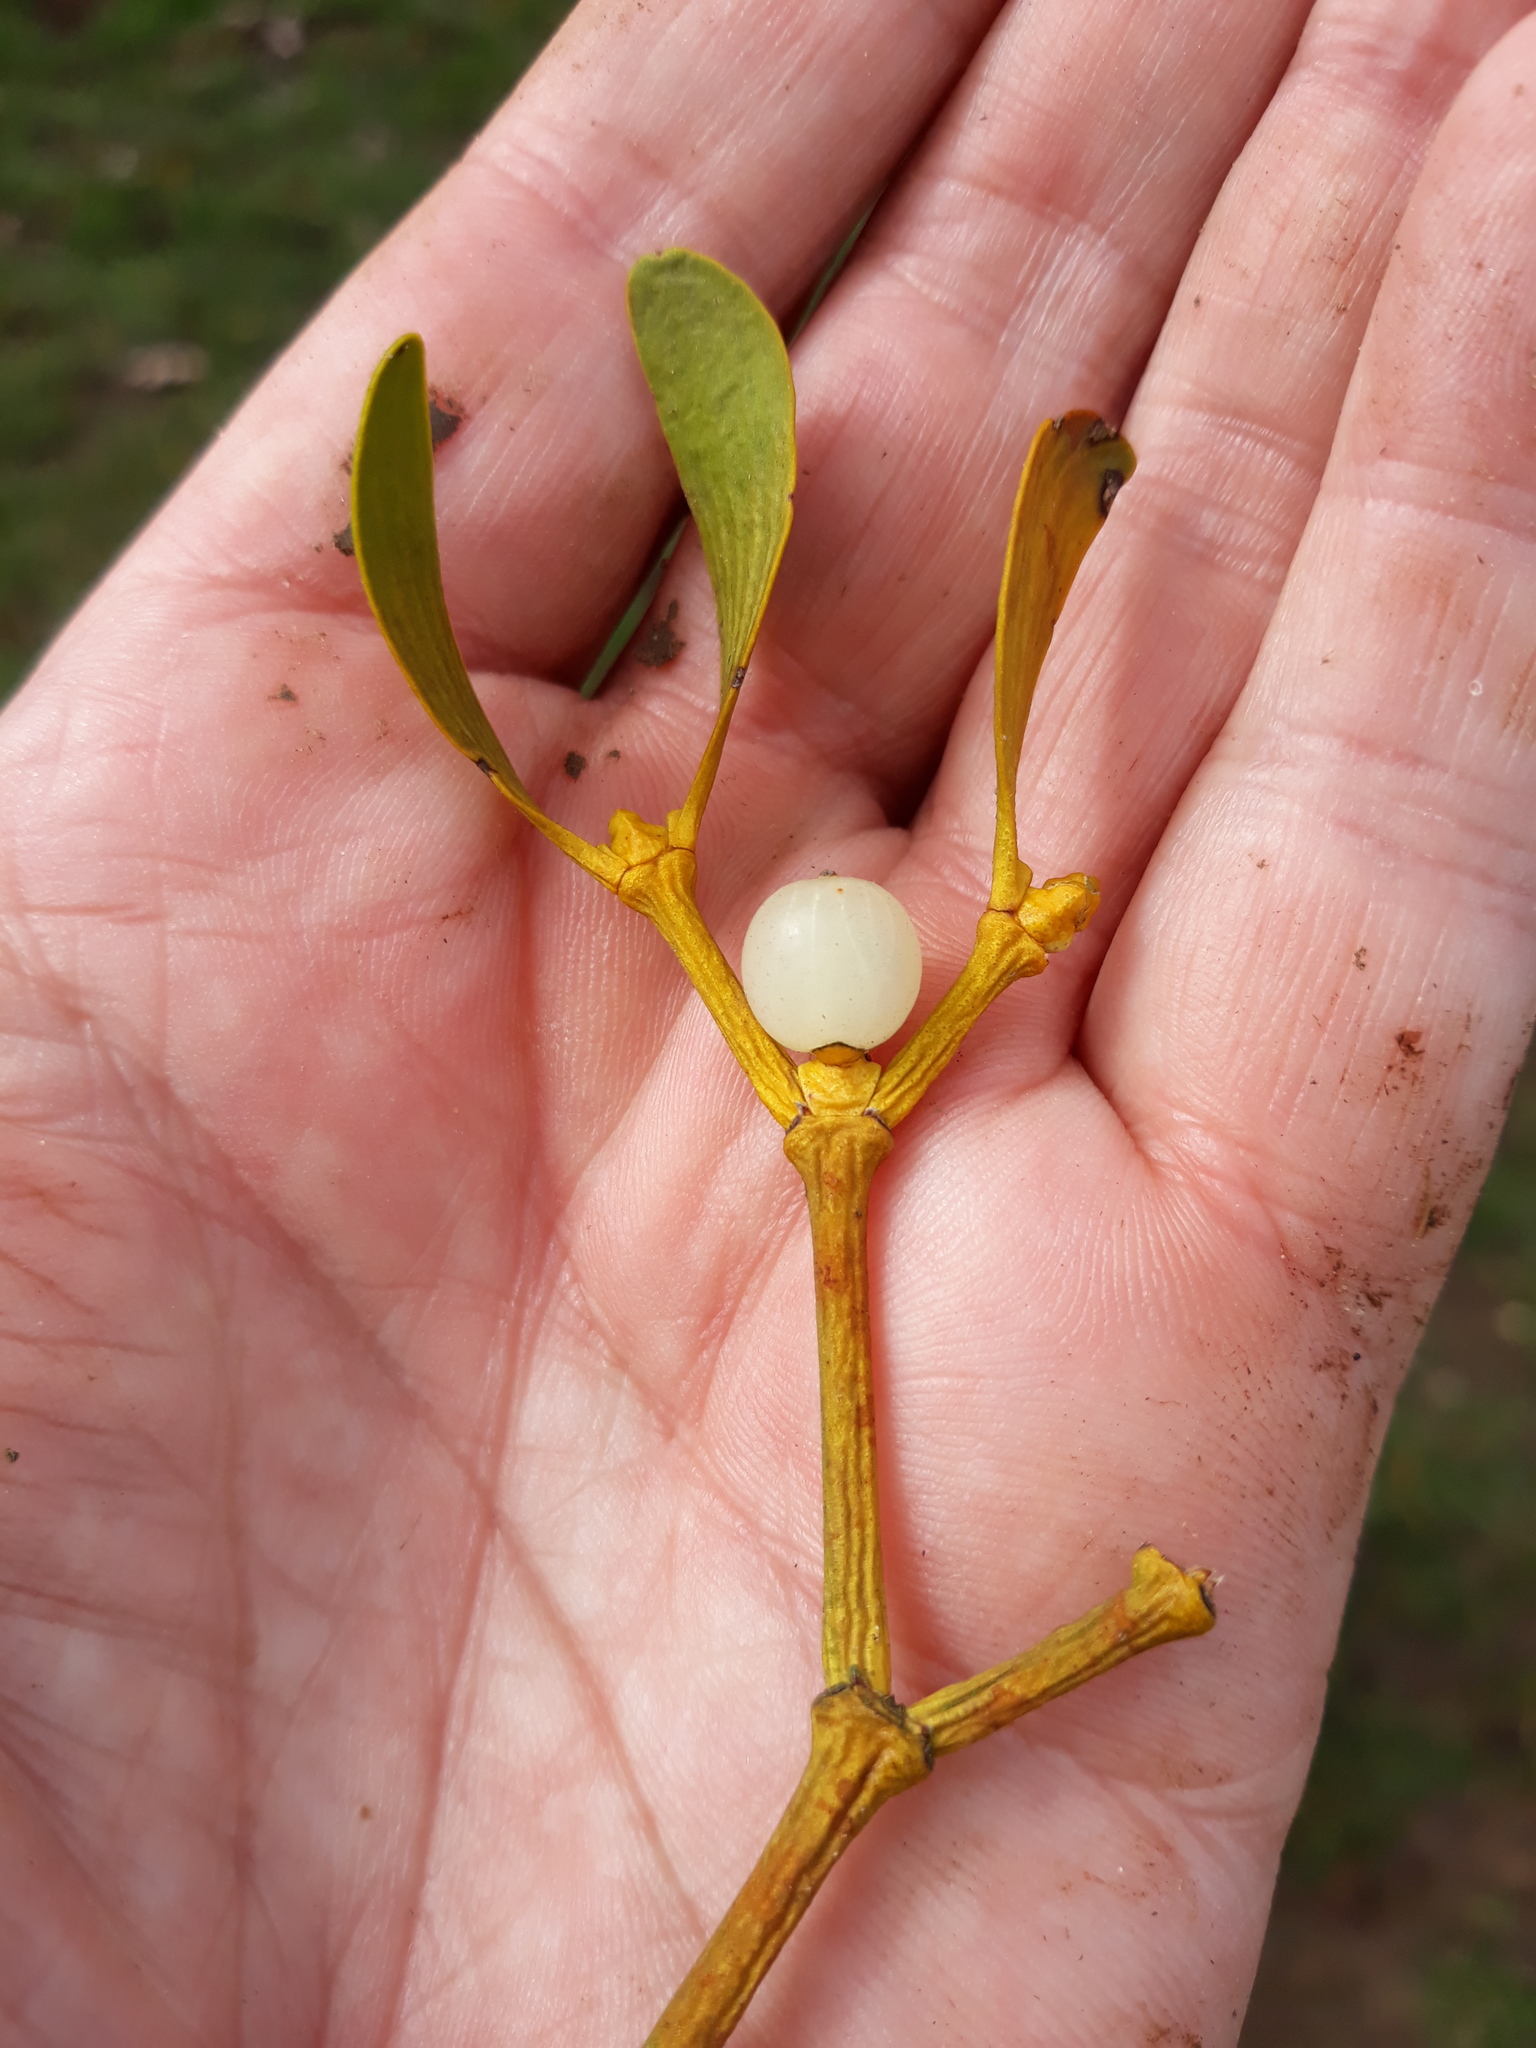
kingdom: Plantae
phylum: Tracheophyta
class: Magnoliopsida
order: Santalales
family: Viscaceae
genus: Viscum
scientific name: Viscum album
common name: Mistletoe
